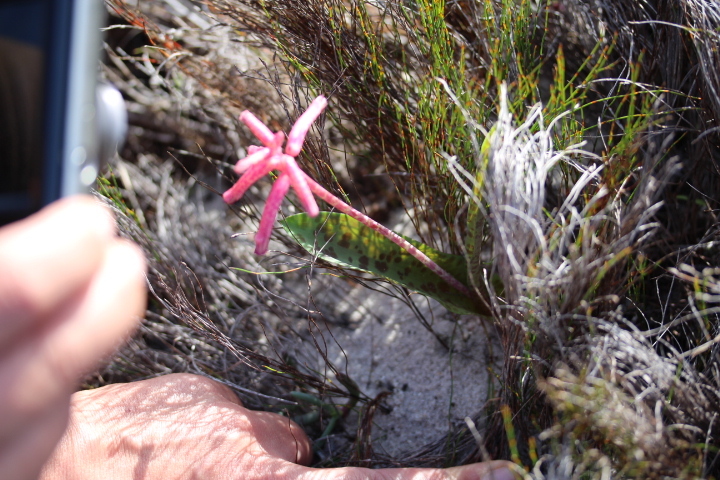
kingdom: Plantae
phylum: Tracheophyta
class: Liliopsida
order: Asparagales
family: Asparagaceae
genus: Lachenalia
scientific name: Lachenalia punctata
